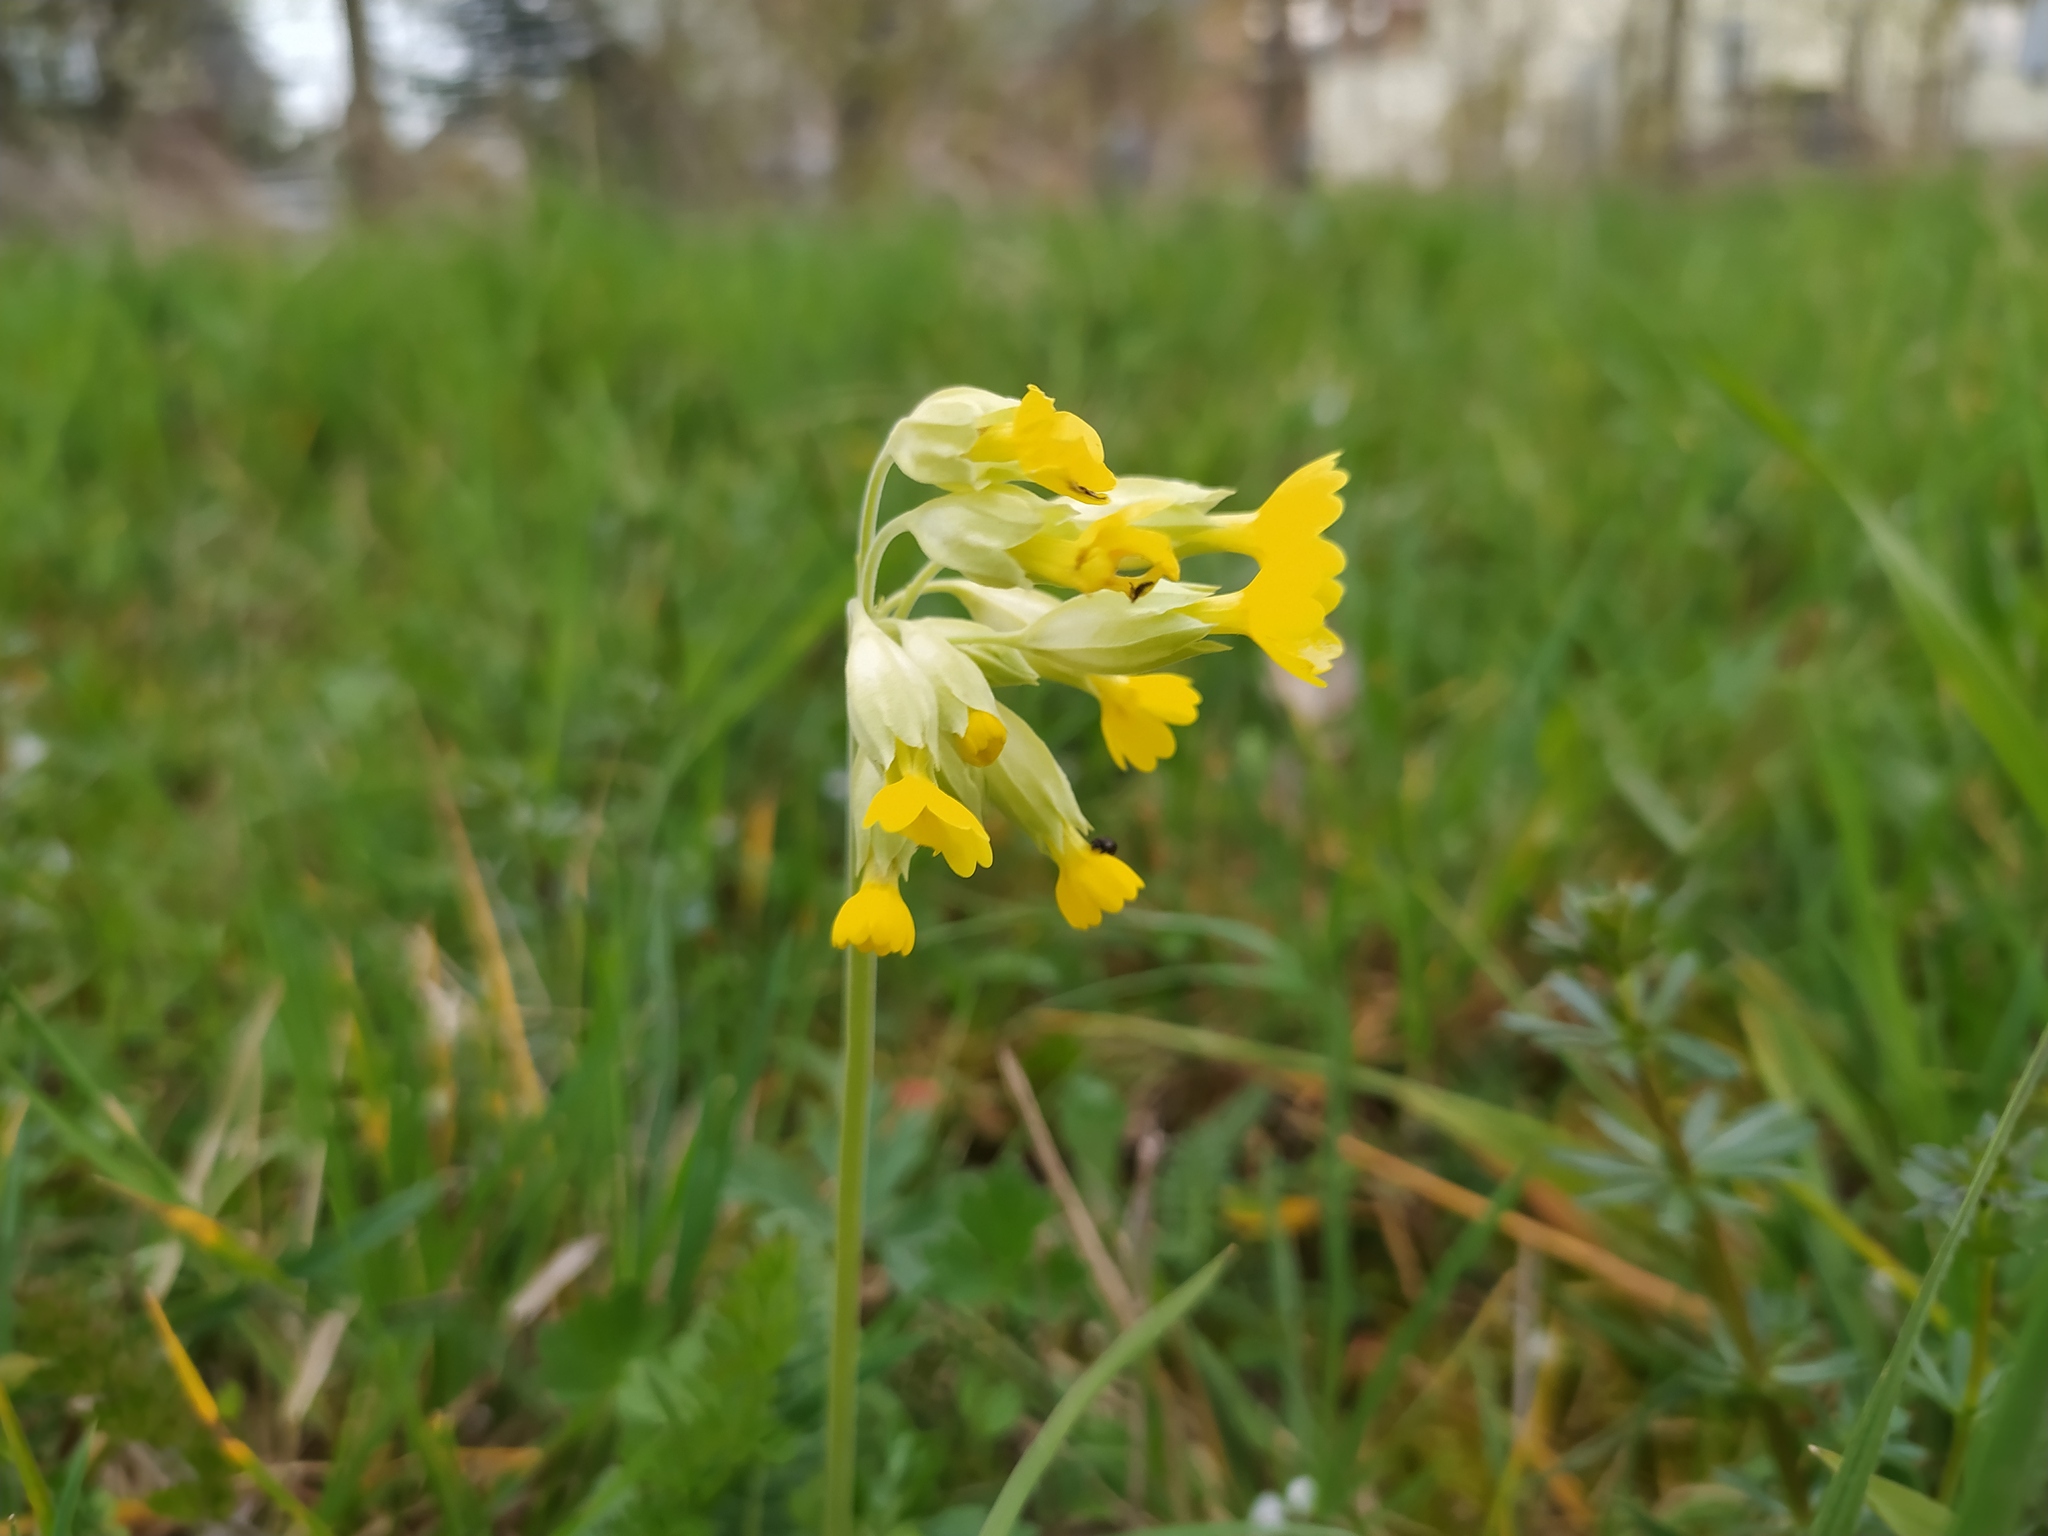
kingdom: Plantae
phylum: Tracheophyta
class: Magnoliopsida
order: Ericales
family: Primulaceae
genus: Primula
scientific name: Primula veris
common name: Cowslip
